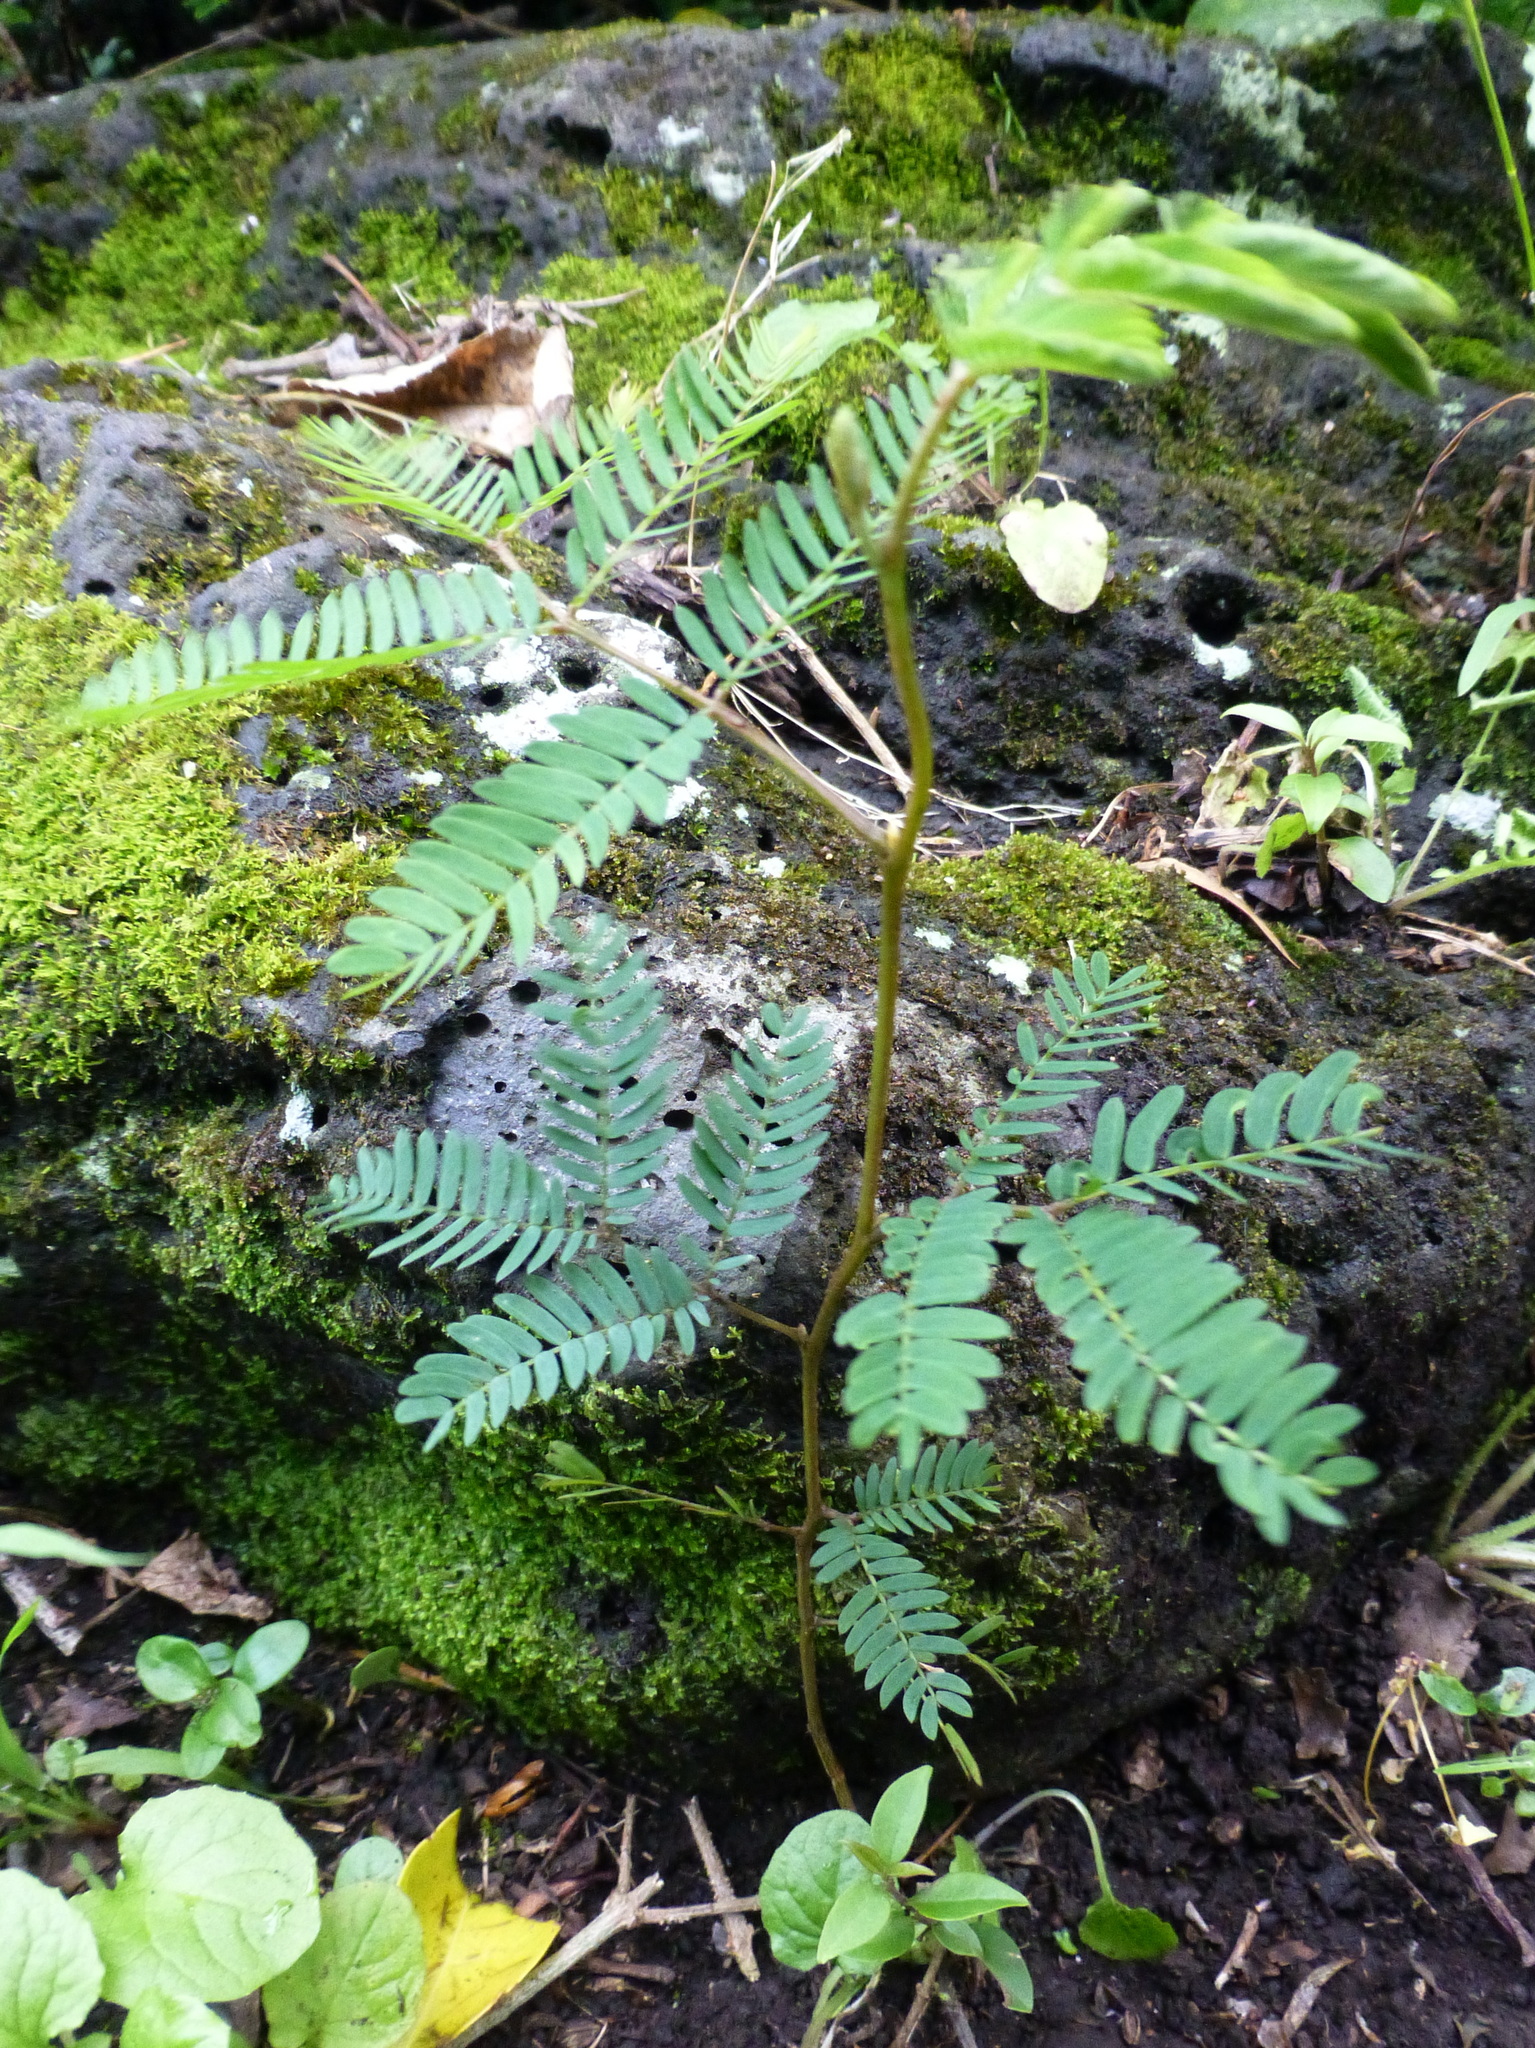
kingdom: Plantae
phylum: Tracheophyta
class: Magnoliopsida
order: Fabales
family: Fabaceae
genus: Paraserianthes
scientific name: Paraserianthes lophantha
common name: Plume albizia
